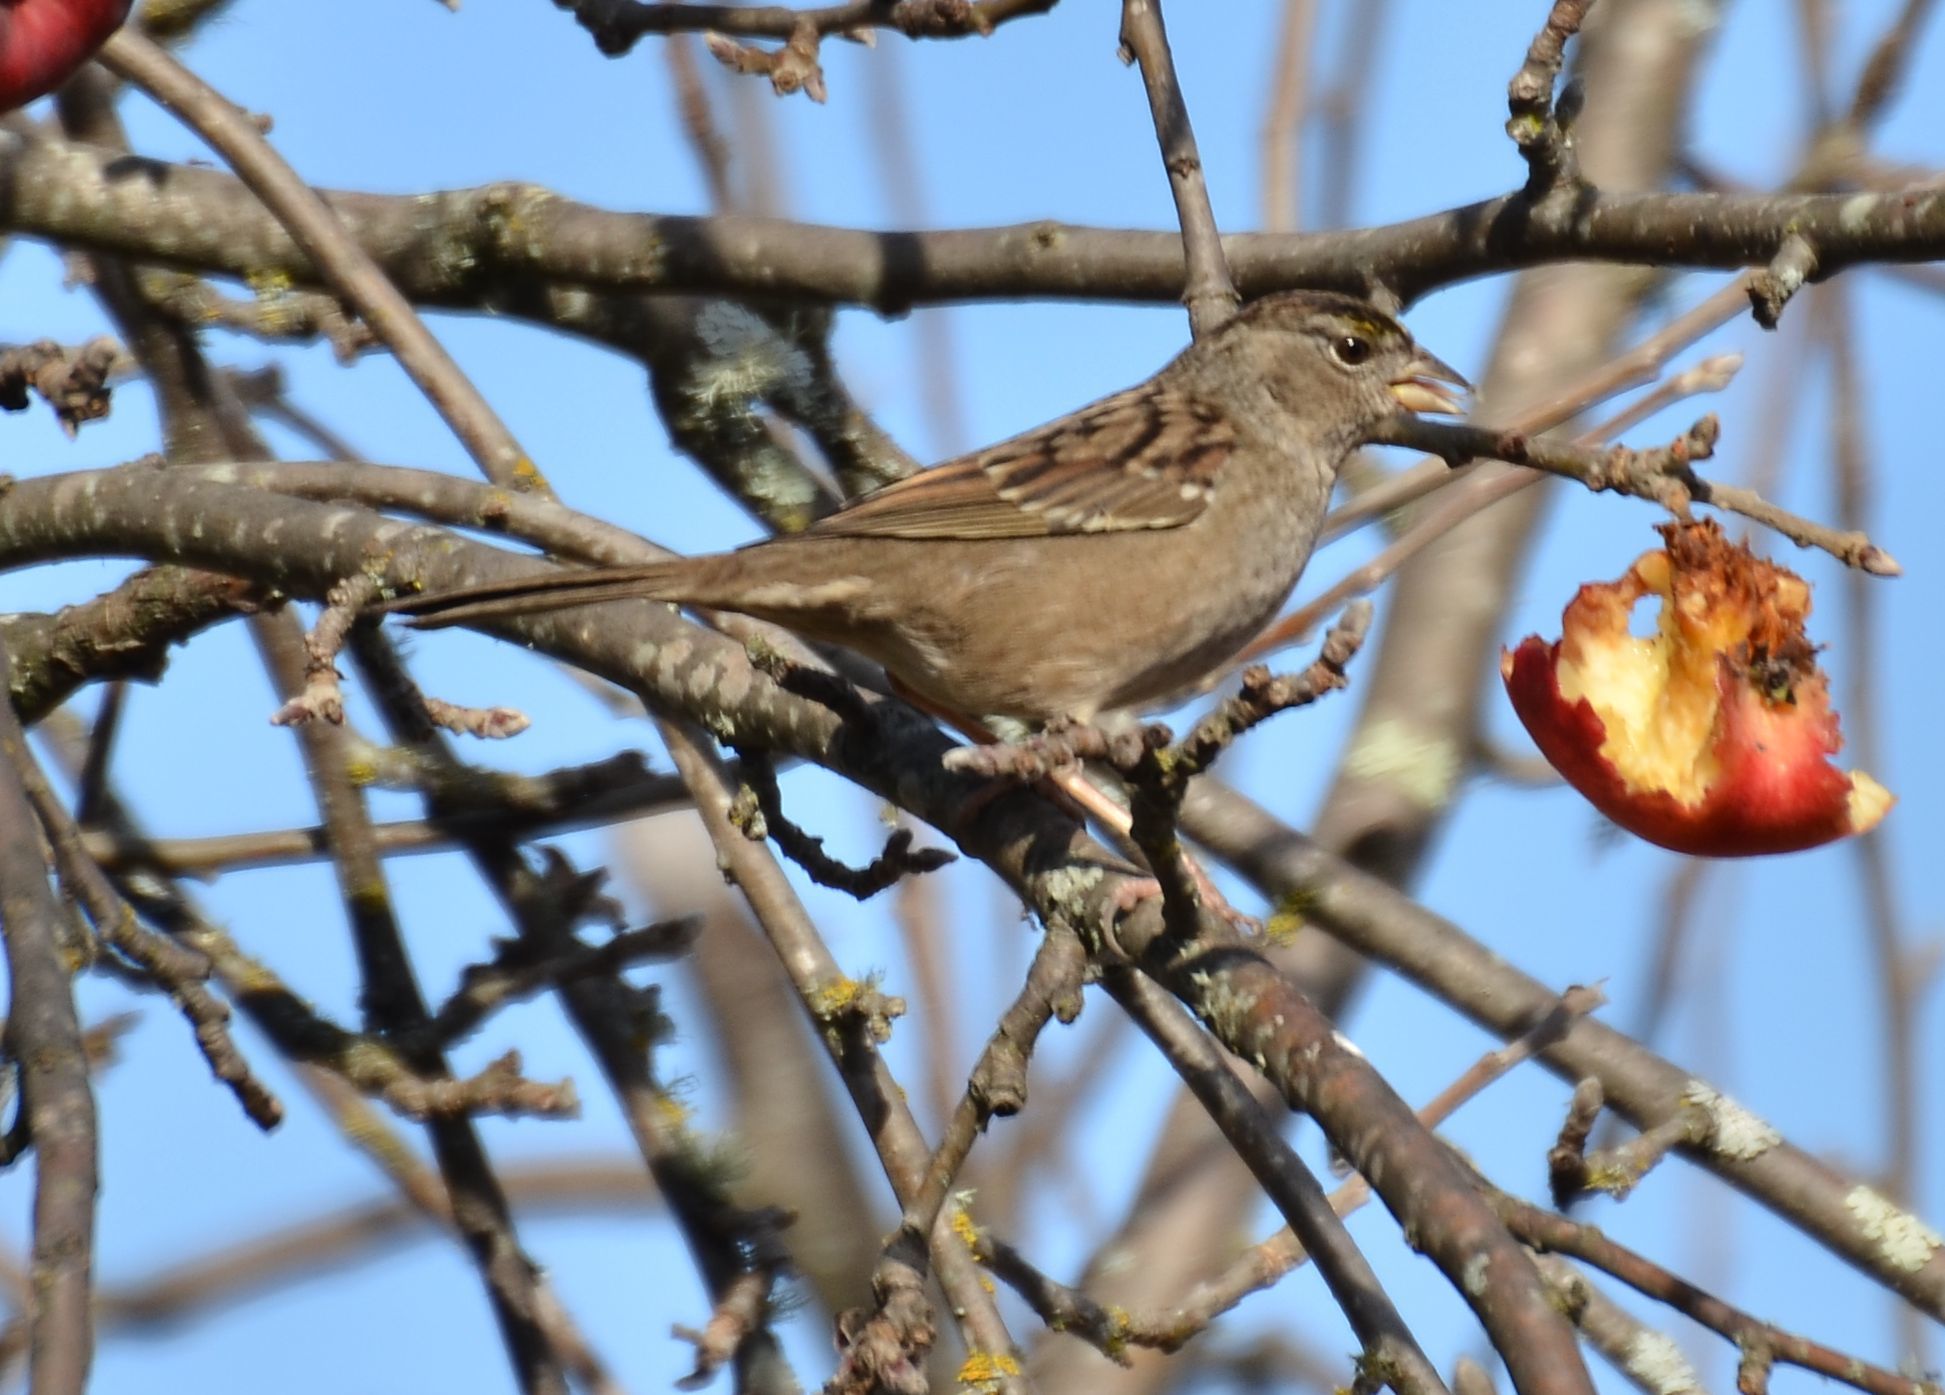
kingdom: Animalia
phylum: Chordata
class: Aves
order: Passeriformes
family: Passerellidae
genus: Zonotrichia
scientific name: Zonotrichia atricapilla
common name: Golden-crowned sparrow
